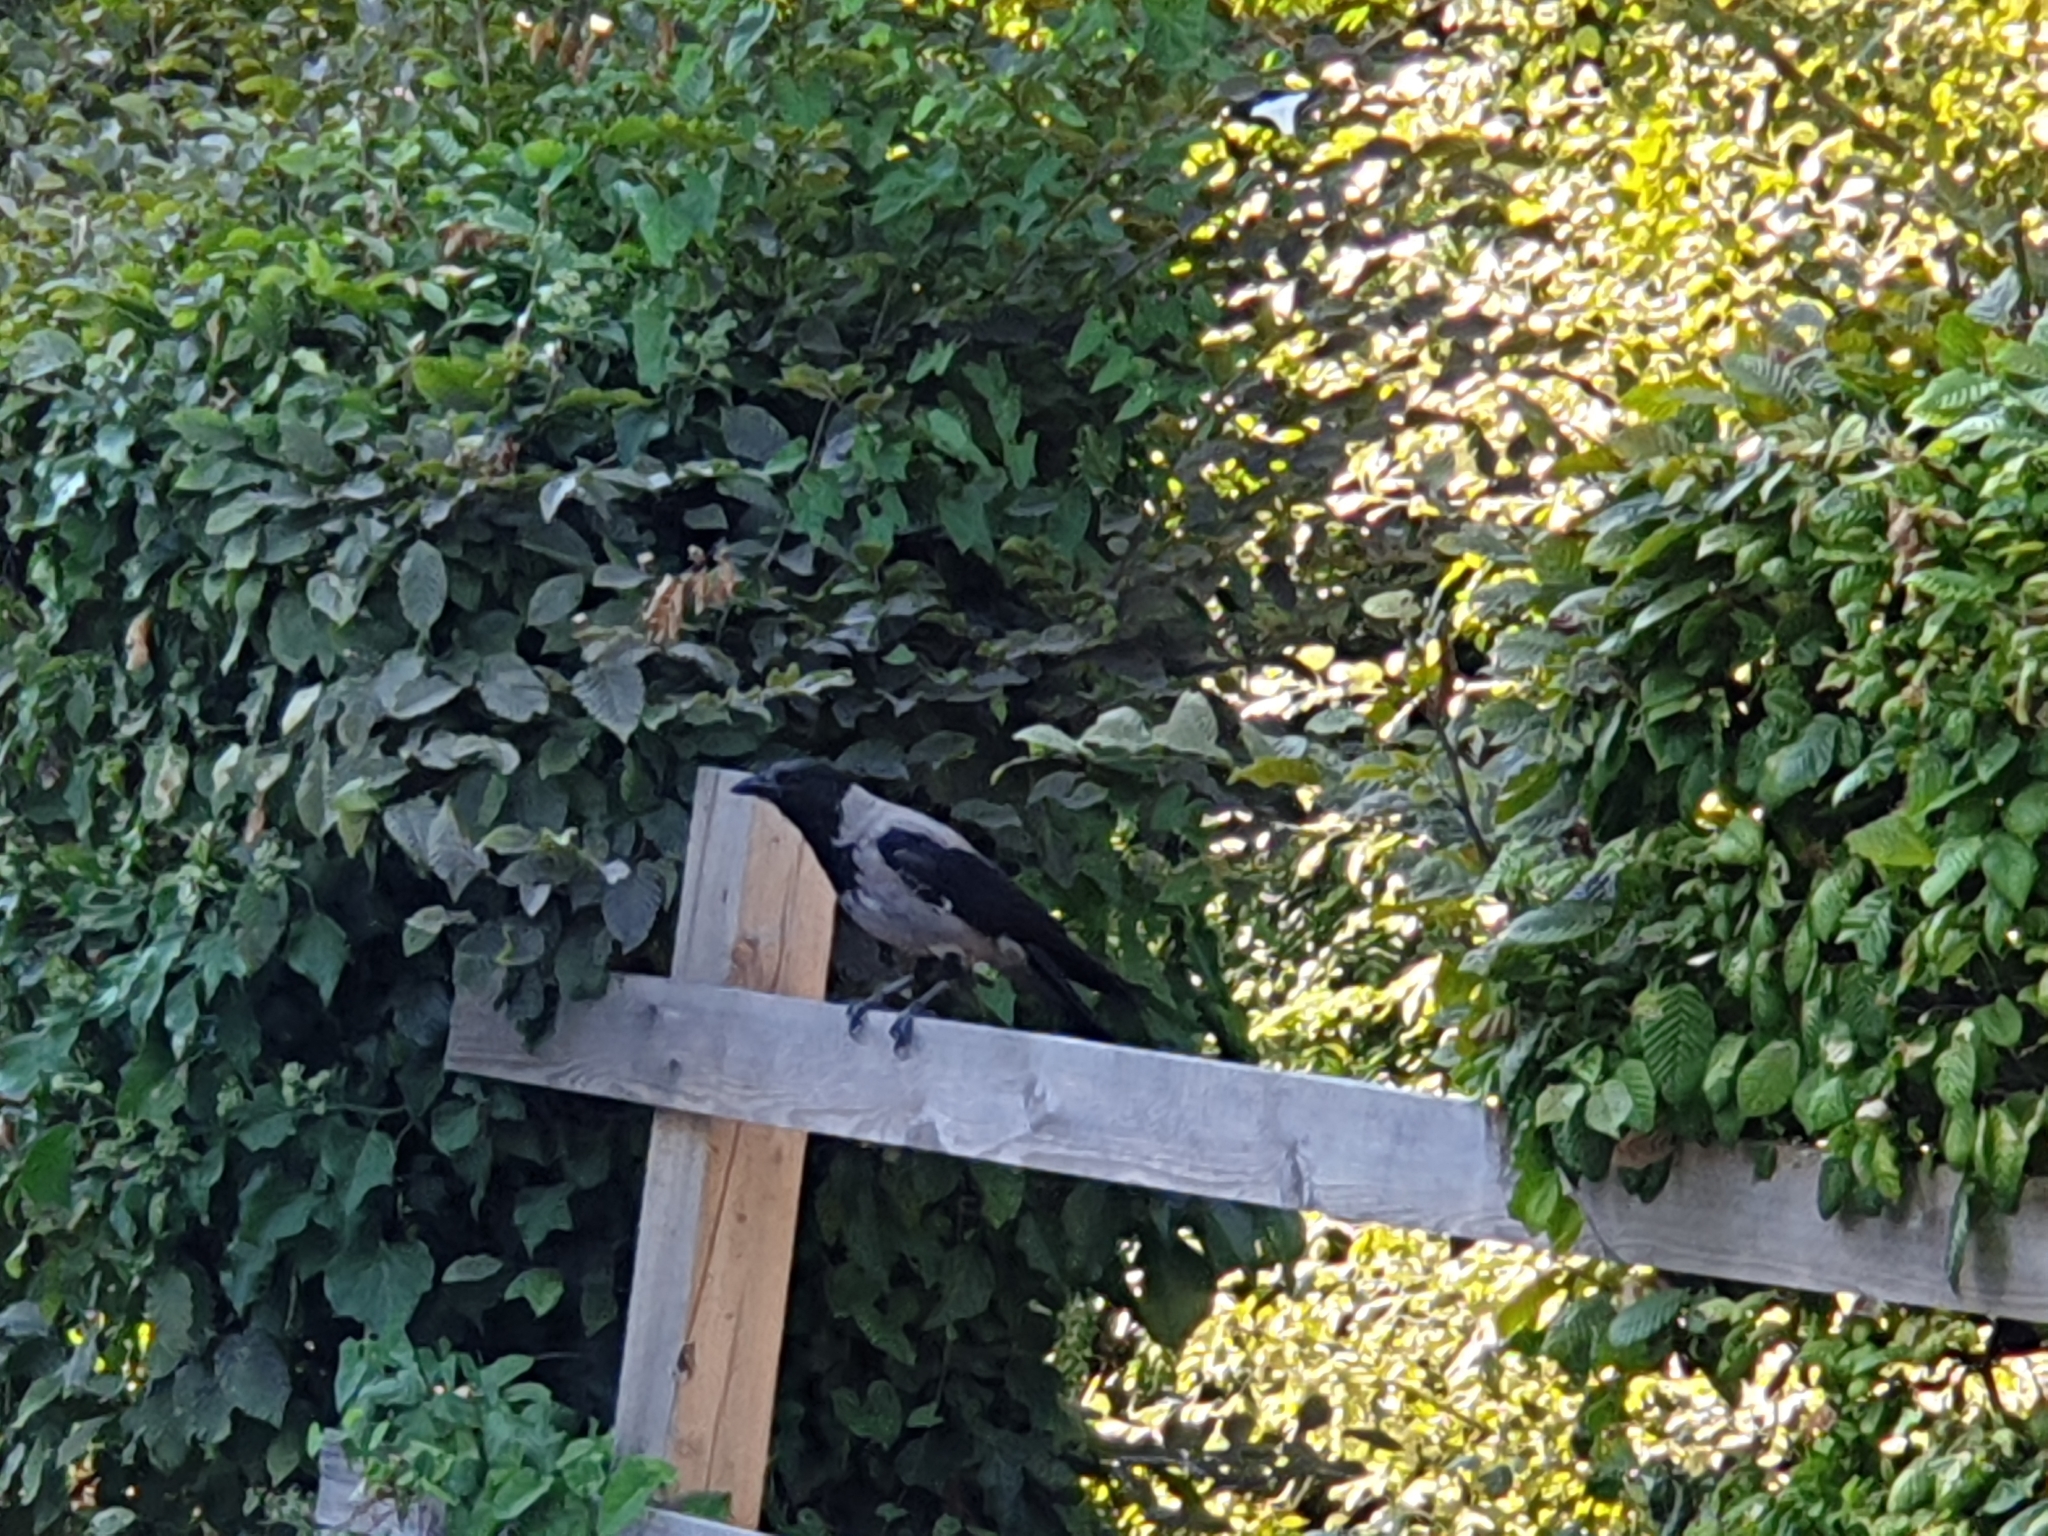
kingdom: Animalia
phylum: Chordata
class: Aves
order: Passeriformes
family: Corvidae
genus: Corvus
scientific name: Corvus cornix
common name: Hooded crow
